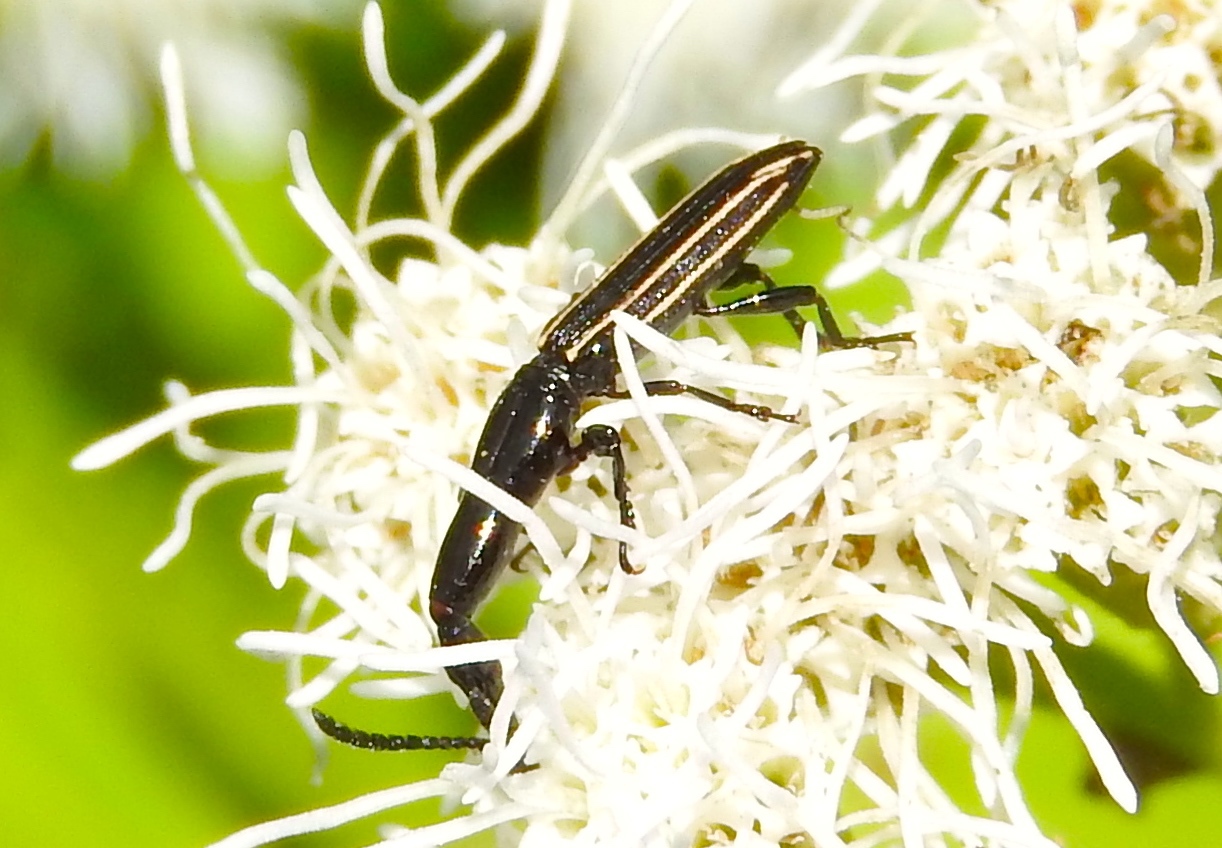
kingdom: Animalia
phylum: Arthropoda
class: Insecta
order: Coleoptera
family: Brentidae
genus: Brentus
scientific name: Brentus anchorago
